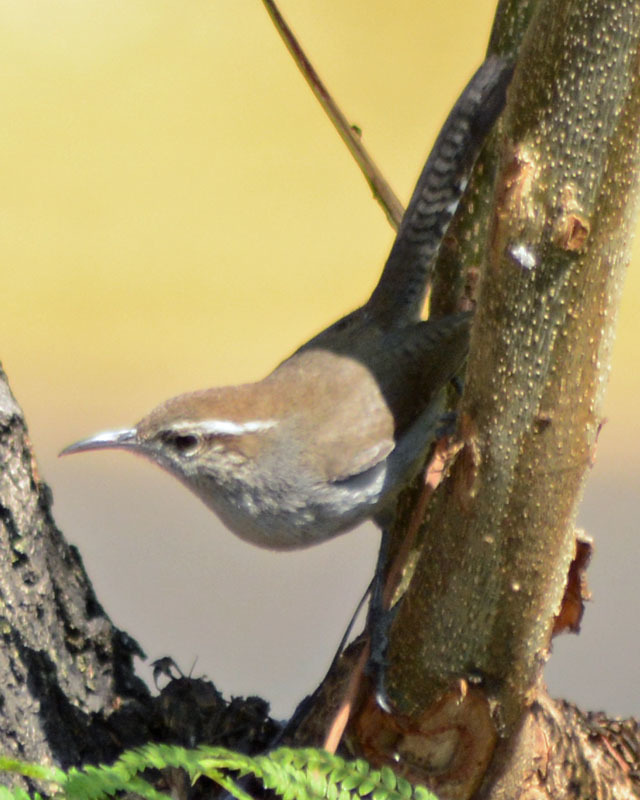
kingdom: Animalia
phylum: Chordata
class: Aves
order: Passeriformes
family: Troglodytidae
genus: Thryomanes
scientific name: Thryomanes bewickii
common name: Bewick's wren
